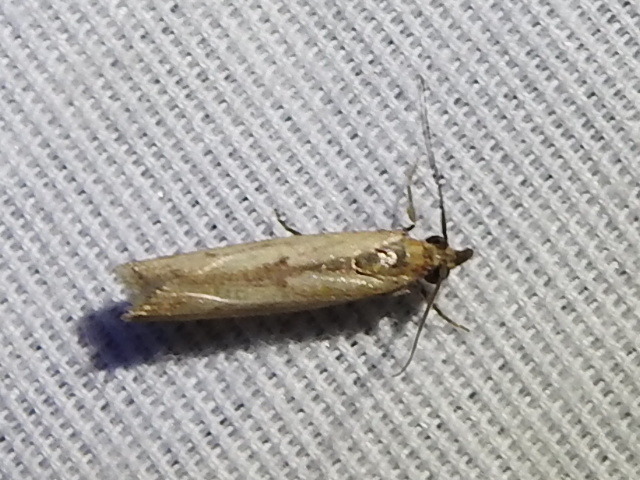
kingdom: Animalia
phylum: Arthropoda
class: Insecta
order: Lepidoptera
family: Pyralidae
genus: Elasmopalpus
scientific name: Elasmopalpus lignosella
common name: Lesser cornstalk borer
